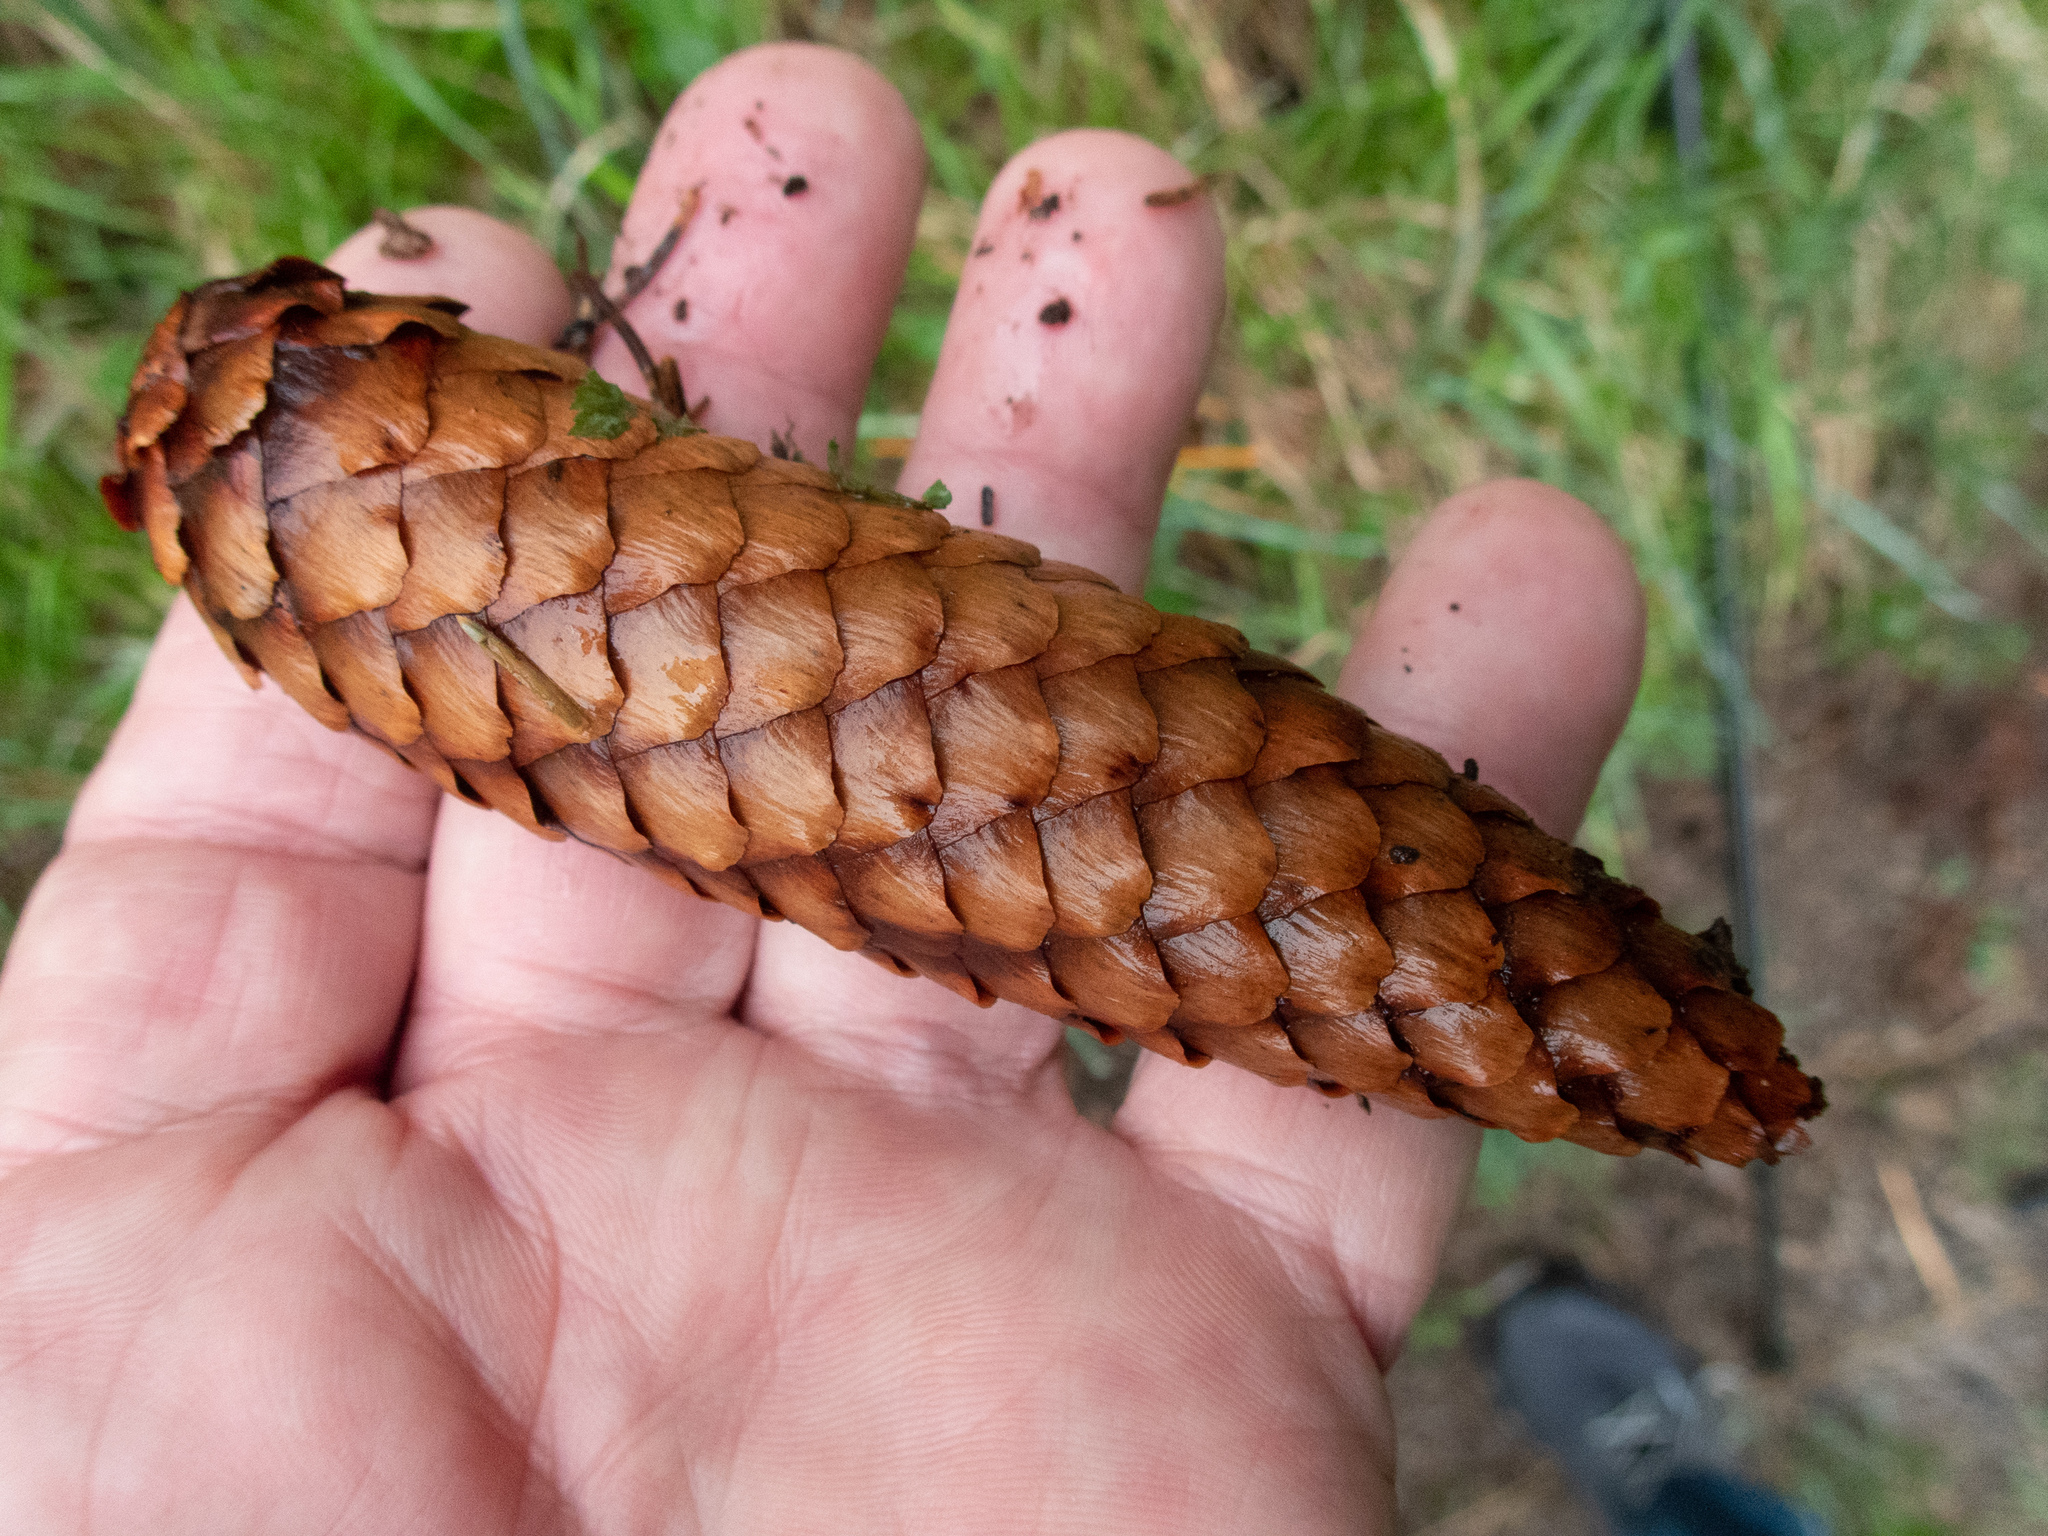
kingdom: Plantae
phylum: Tracheophyta
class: Pinopsida
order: Pinales
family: Pinaceae
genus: Picea
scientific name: Picea abies
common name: Norway spruce
